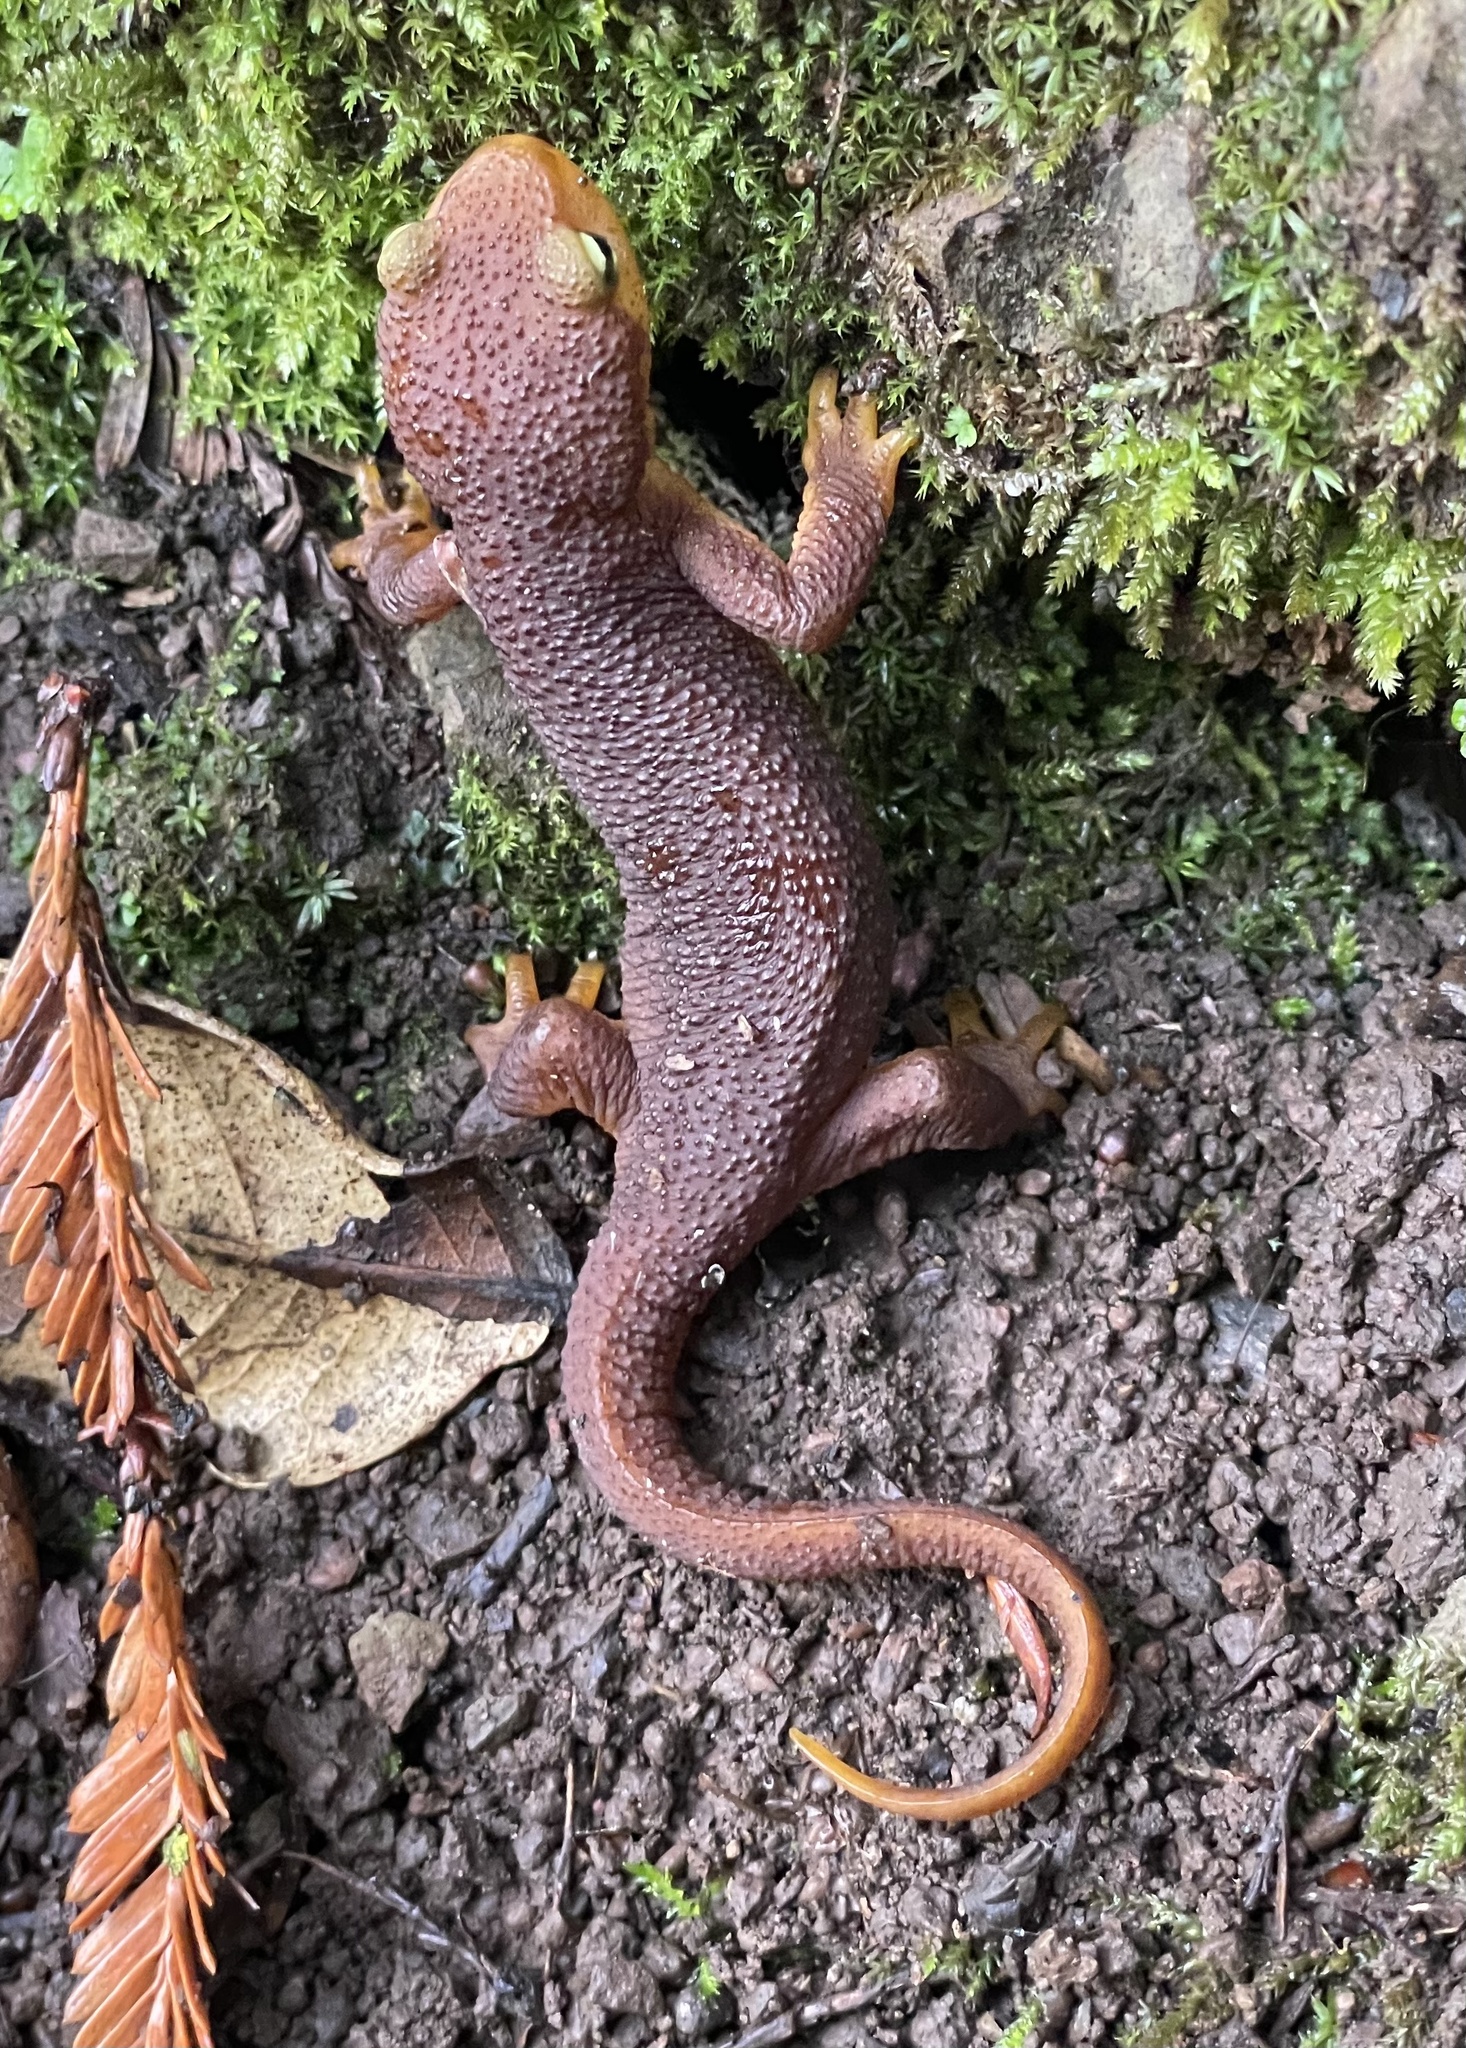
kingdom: Animalia
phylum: Chordata
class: Amphibia
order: Caudata
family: Salamandridae
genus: Taricha
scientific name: Taricha torosa
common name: California newt
